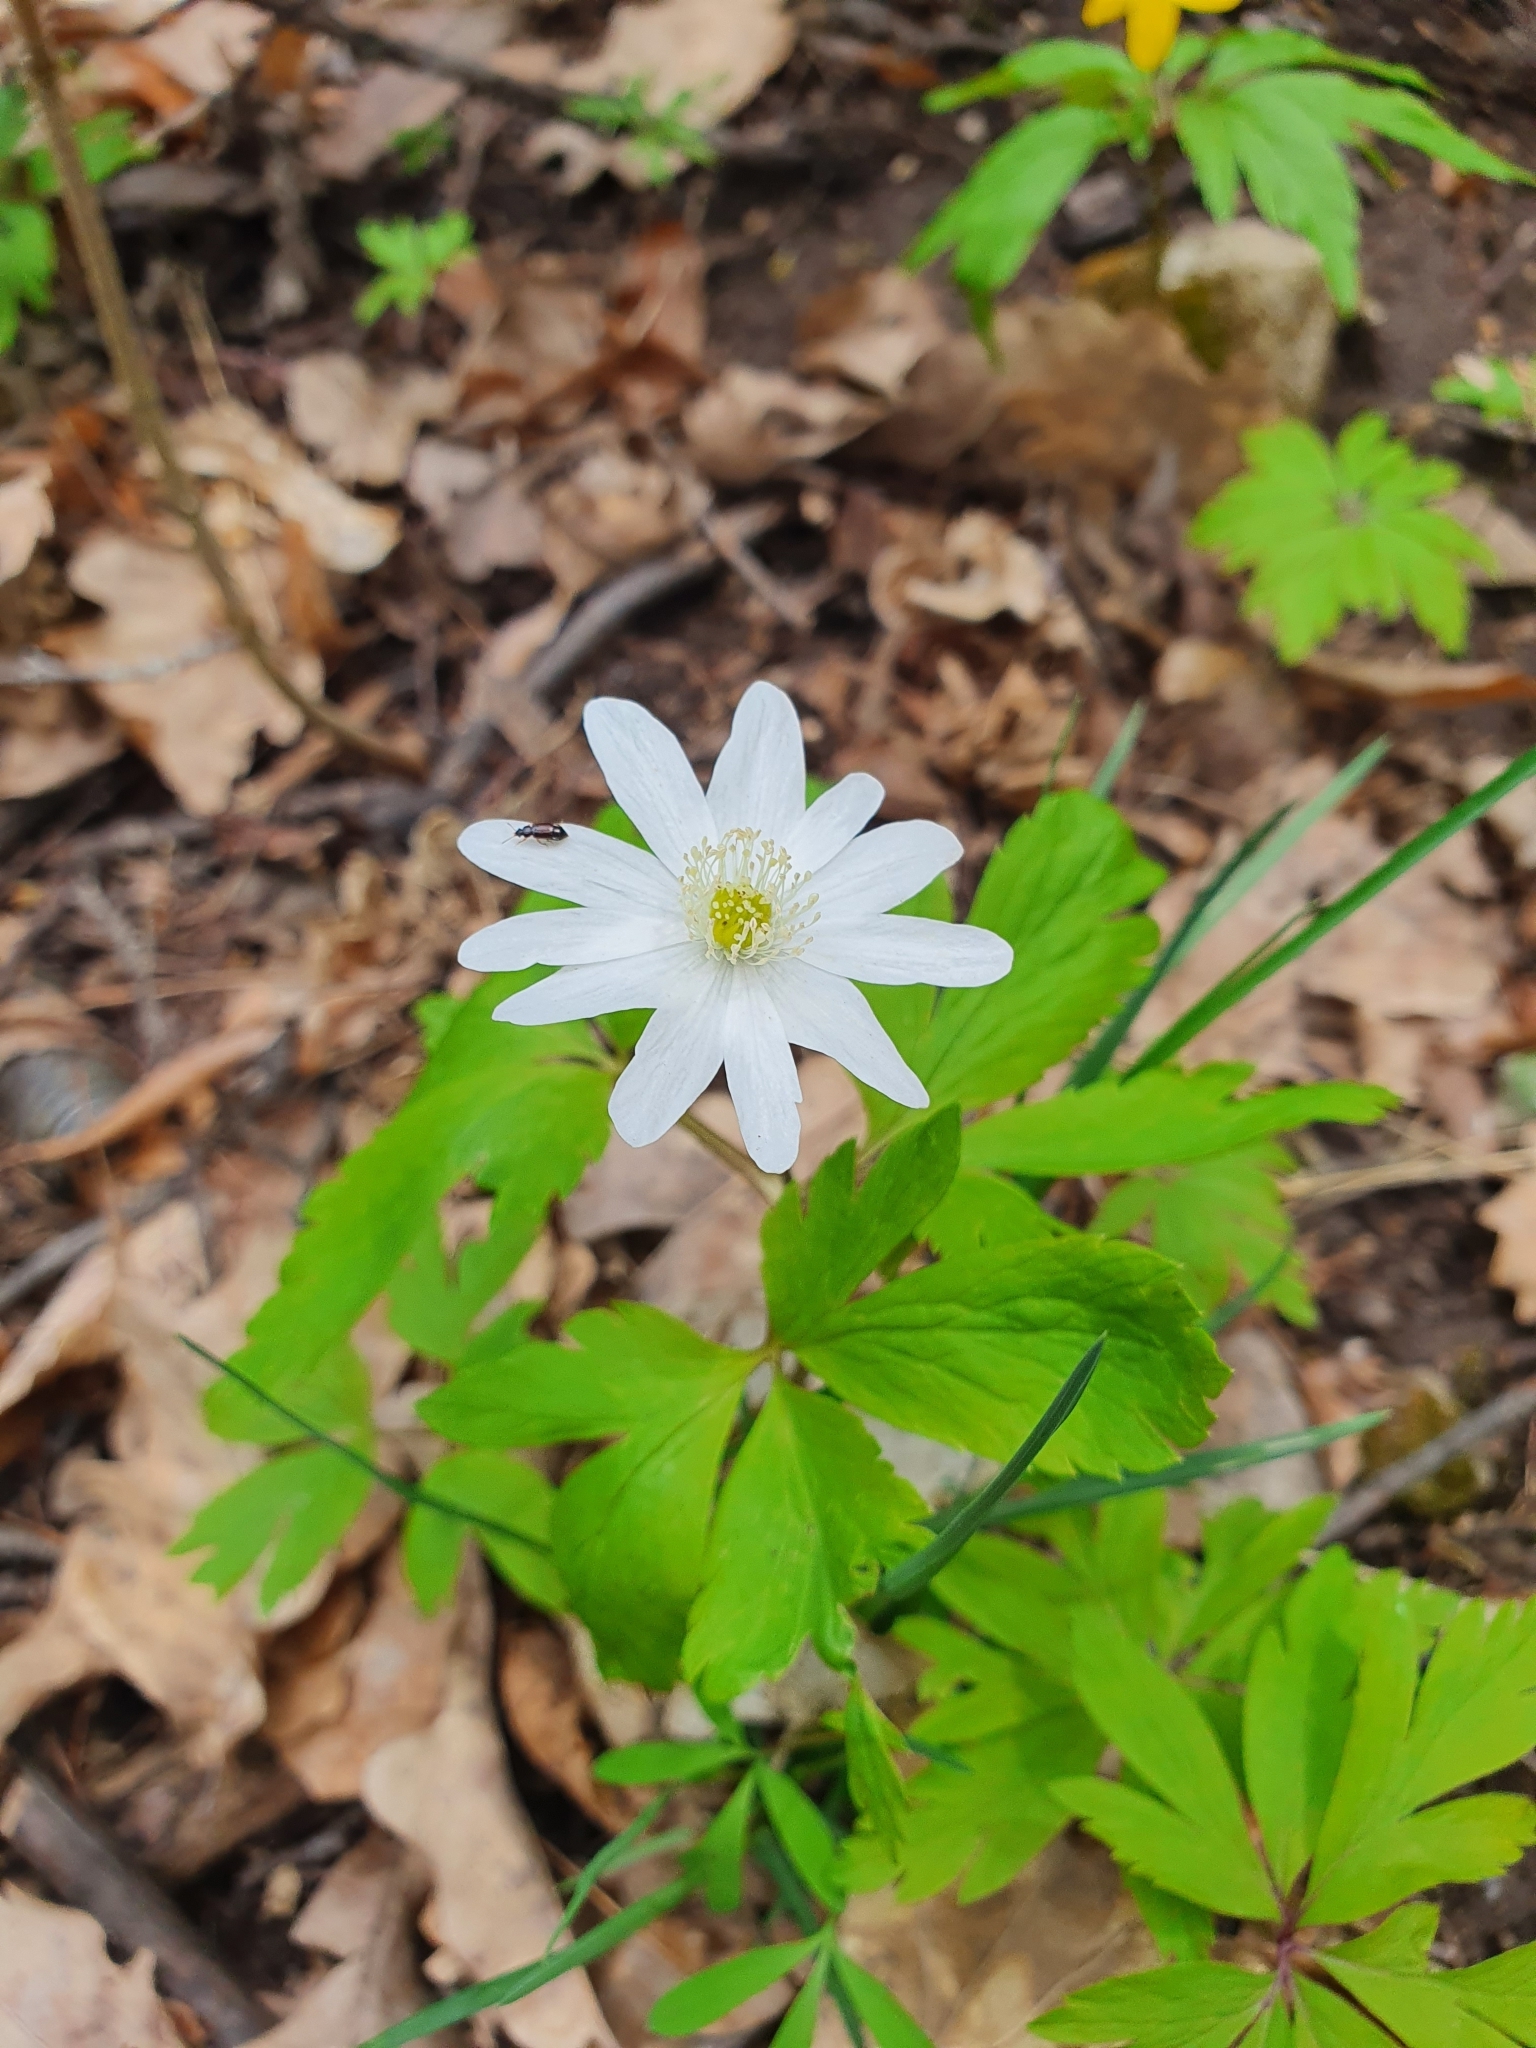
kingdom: Plantae
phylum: Tracheophyta
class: Magnoliopsida
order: Ranunculales
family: Ranunculaceae
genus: Anemone
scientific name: Anemone altaica
